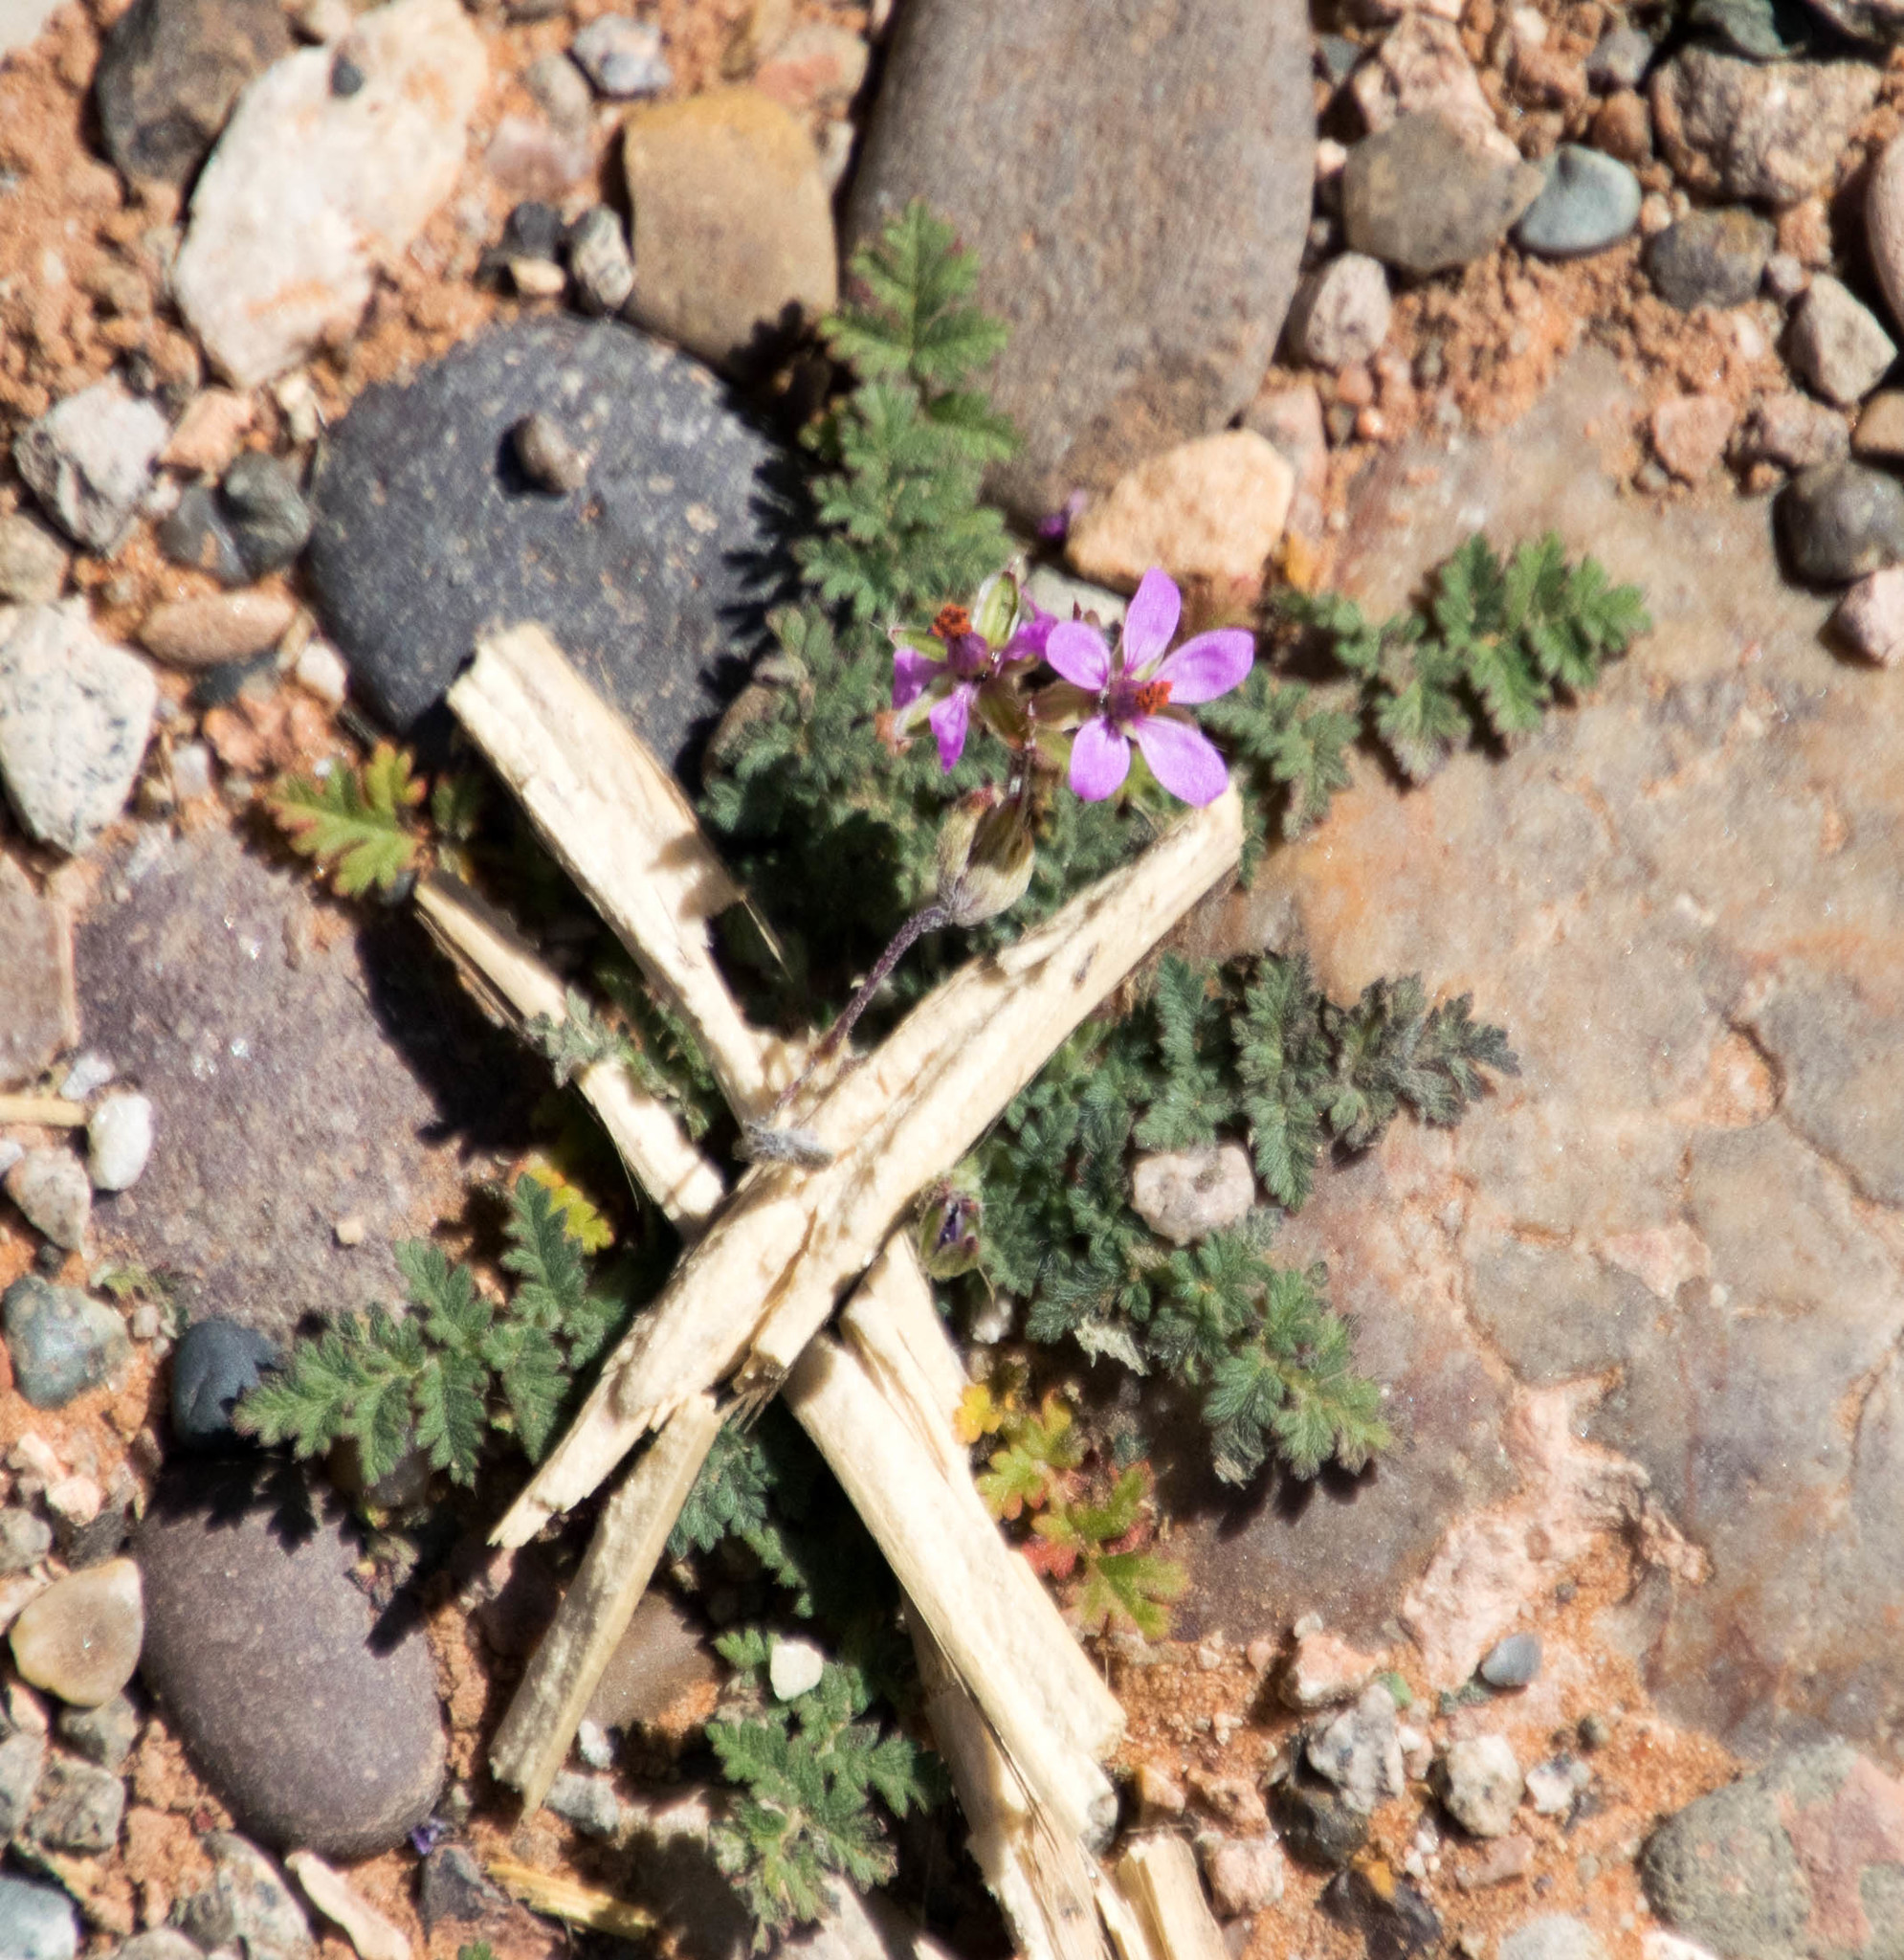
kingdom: Plantae
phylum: Tracheophyta
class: Magnoliopsida
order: Geraniales
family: Geraniaceae
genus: Erodium
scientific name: Erodium cicutarium
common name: Common stork's-bill
